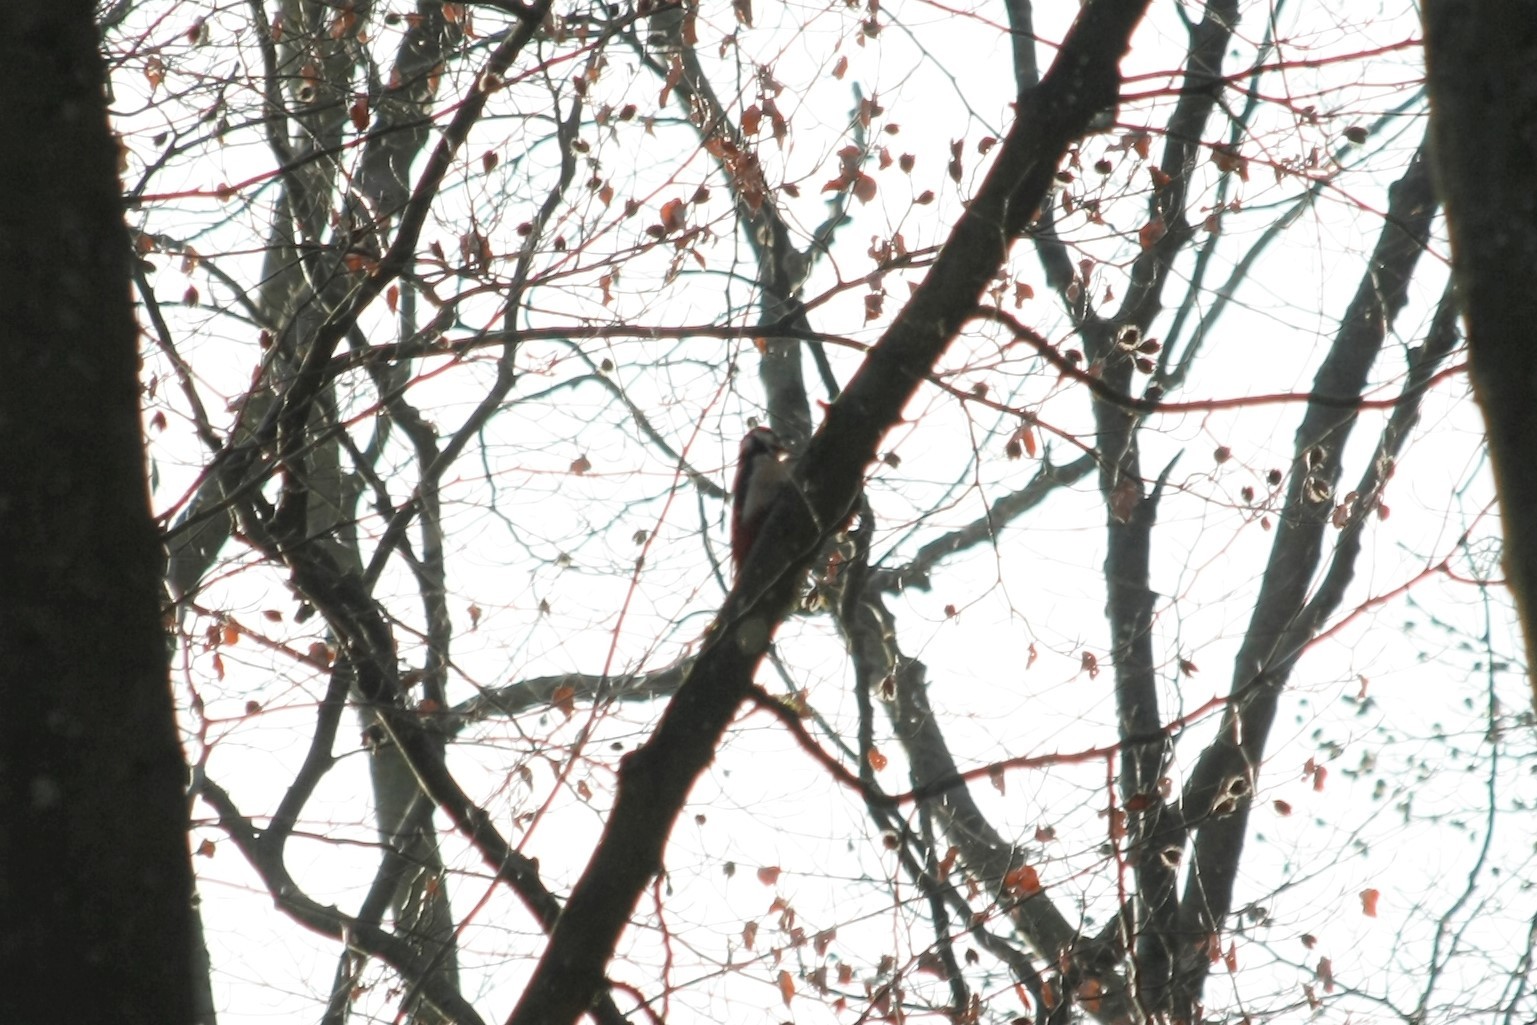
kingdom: Animalia
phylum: Chordata
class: Aves
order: Piciformes
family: Picidae
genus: Dendrocopos
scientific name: Dendrocopos major
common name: Great spotted woodpecker
